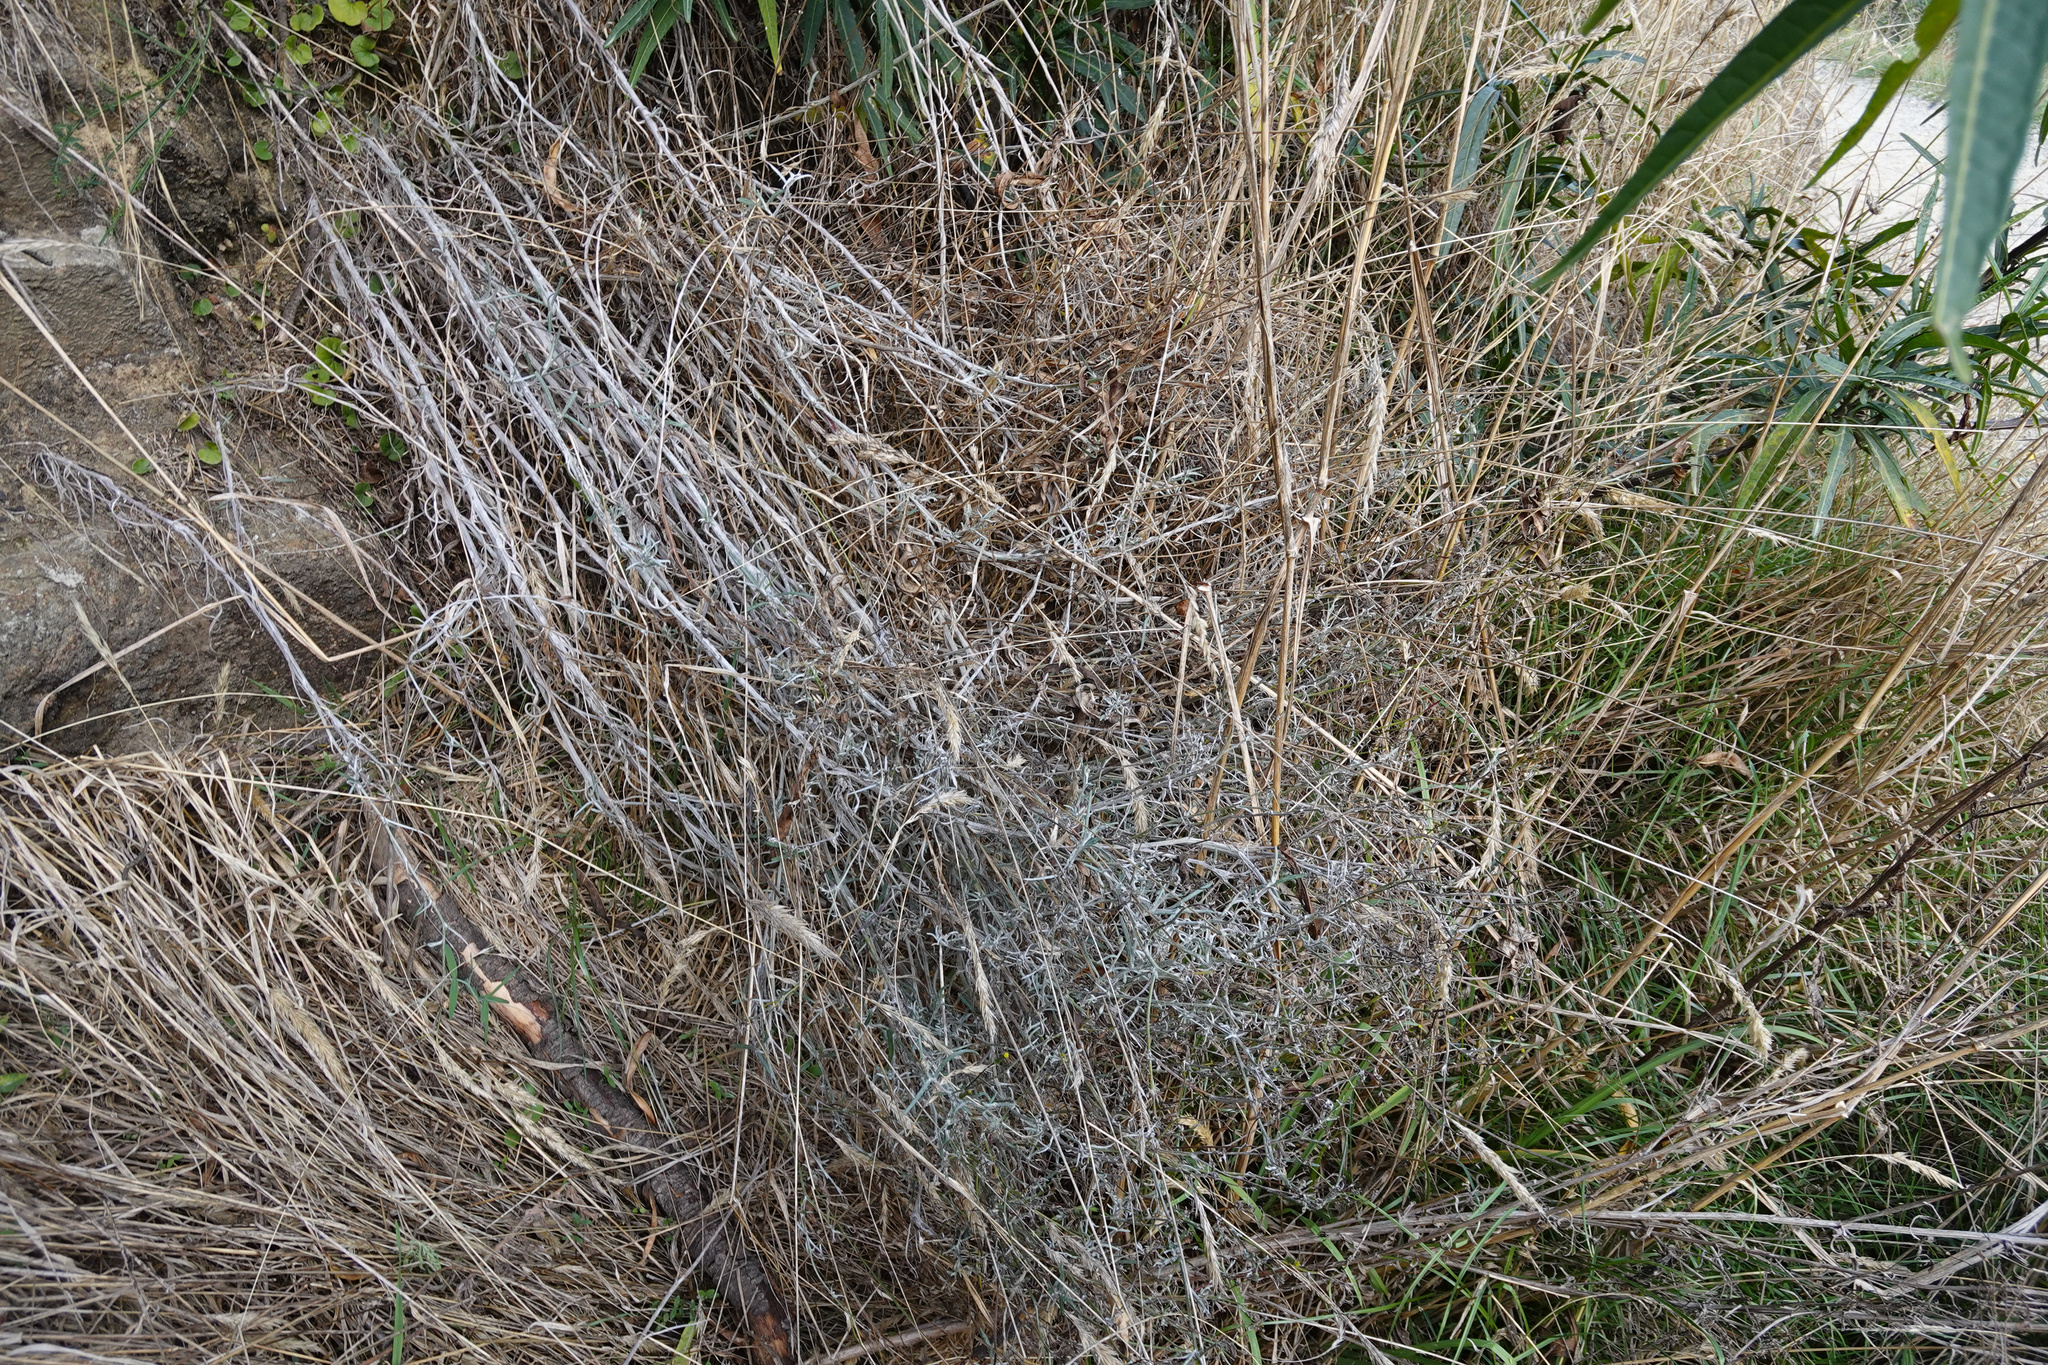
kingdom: Plantae
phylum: Tracheophyta
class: Magnoliopsida
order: Asterales
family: Asteraceae
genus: Senecio
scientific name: Senecio quadridentatus
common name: Cotton fireweed
